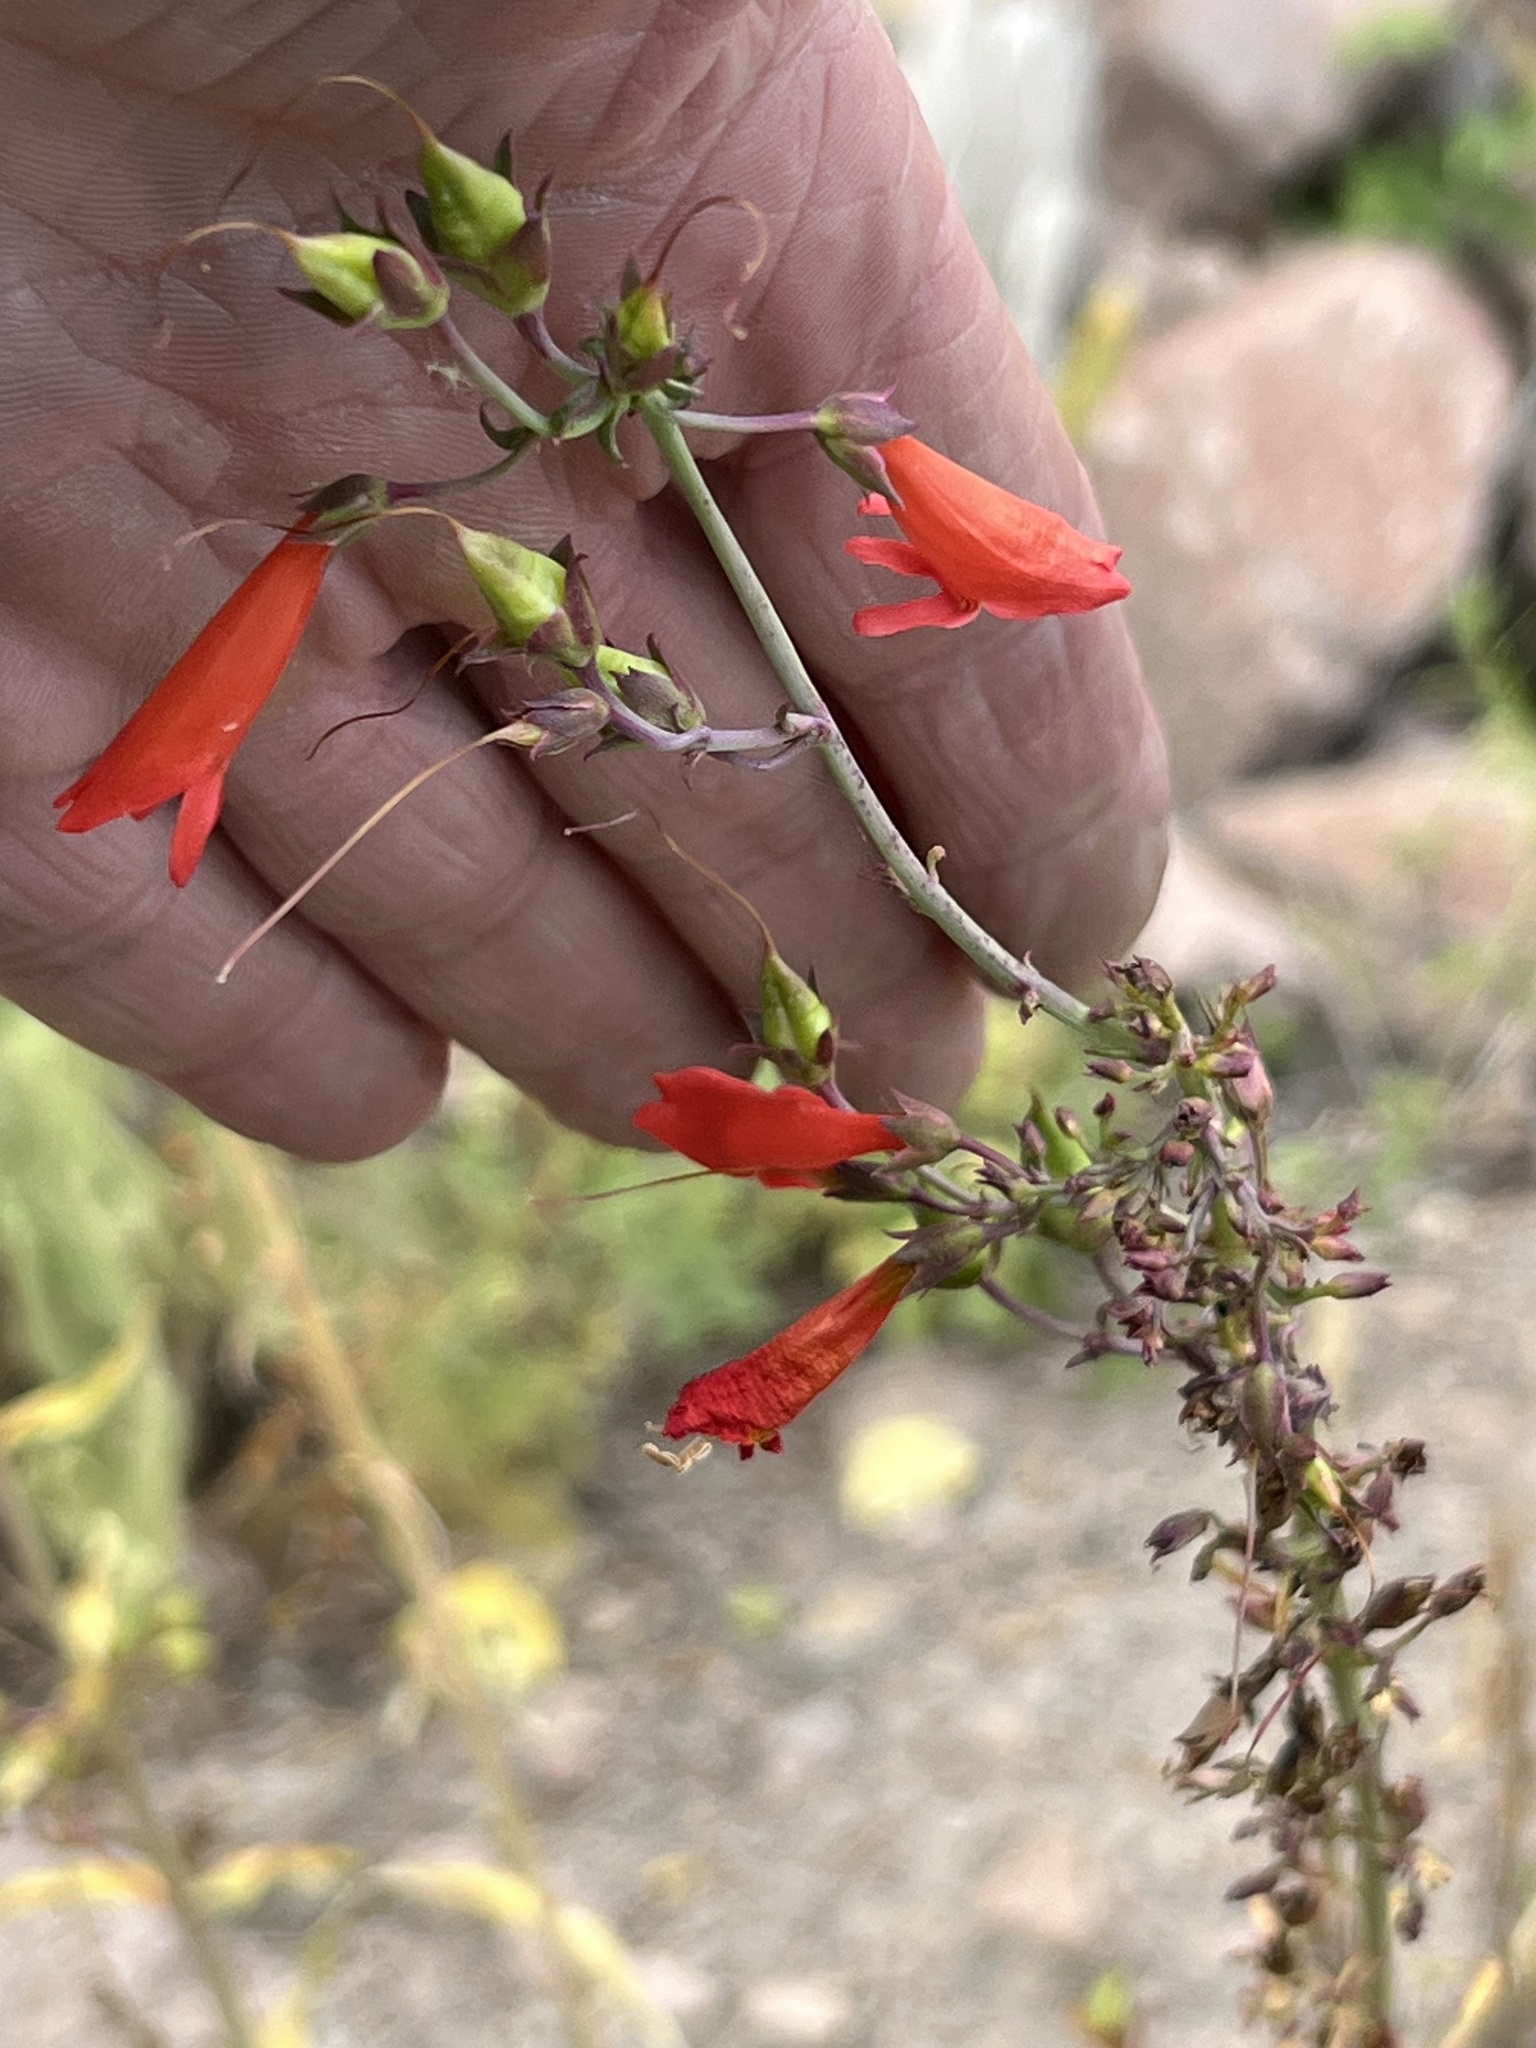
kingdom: Plantae
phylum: Tracheophyta
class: Magnoliopsida
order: Lamiales
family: Plantaginaceae
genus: Penstemon
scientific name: Penstemon barbatus
